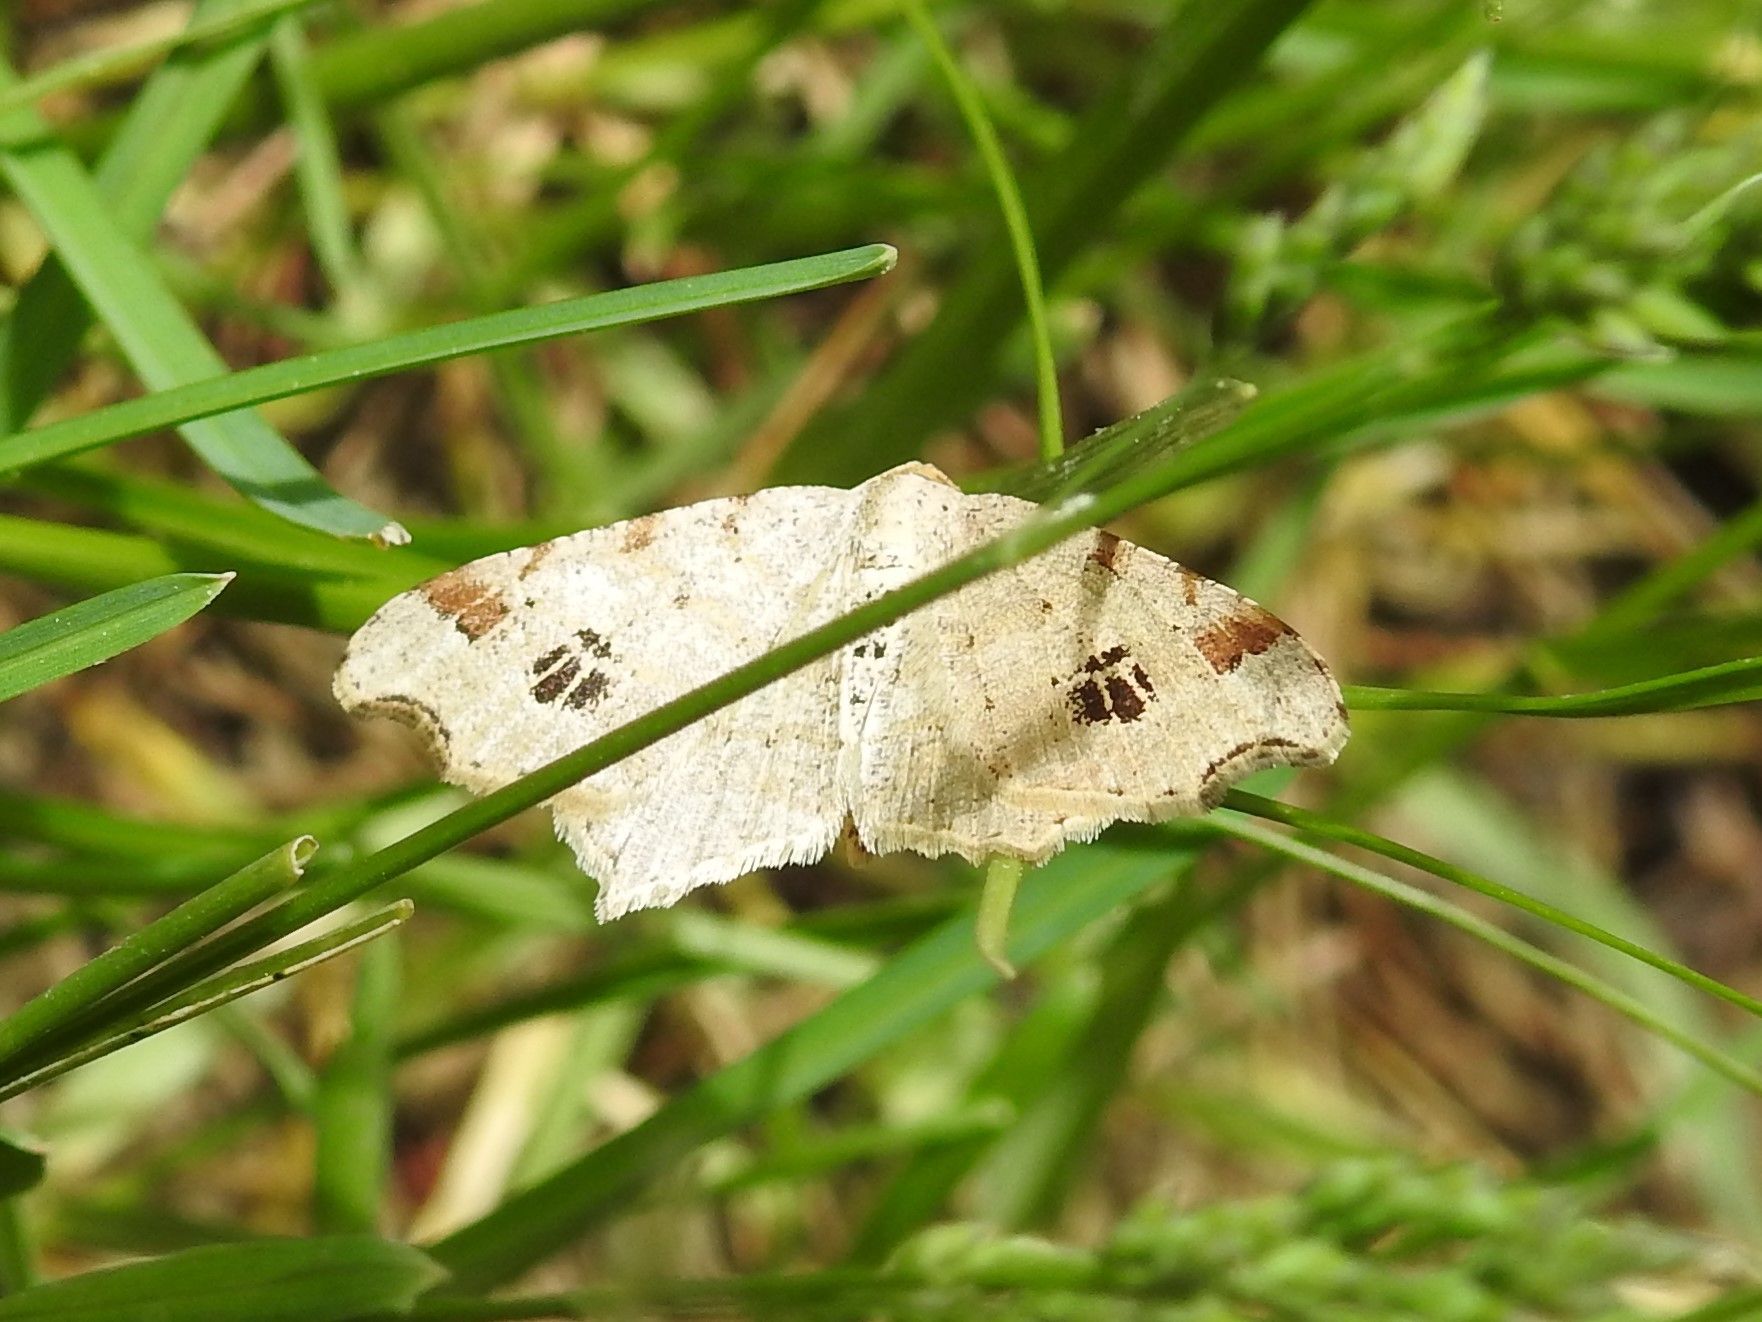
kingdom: Animalia
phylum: Arthropoda
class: Insecta
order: Lepidoptera
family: Geometridae
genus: Macaria
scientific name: Macaria aemulataria
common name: Common angle
